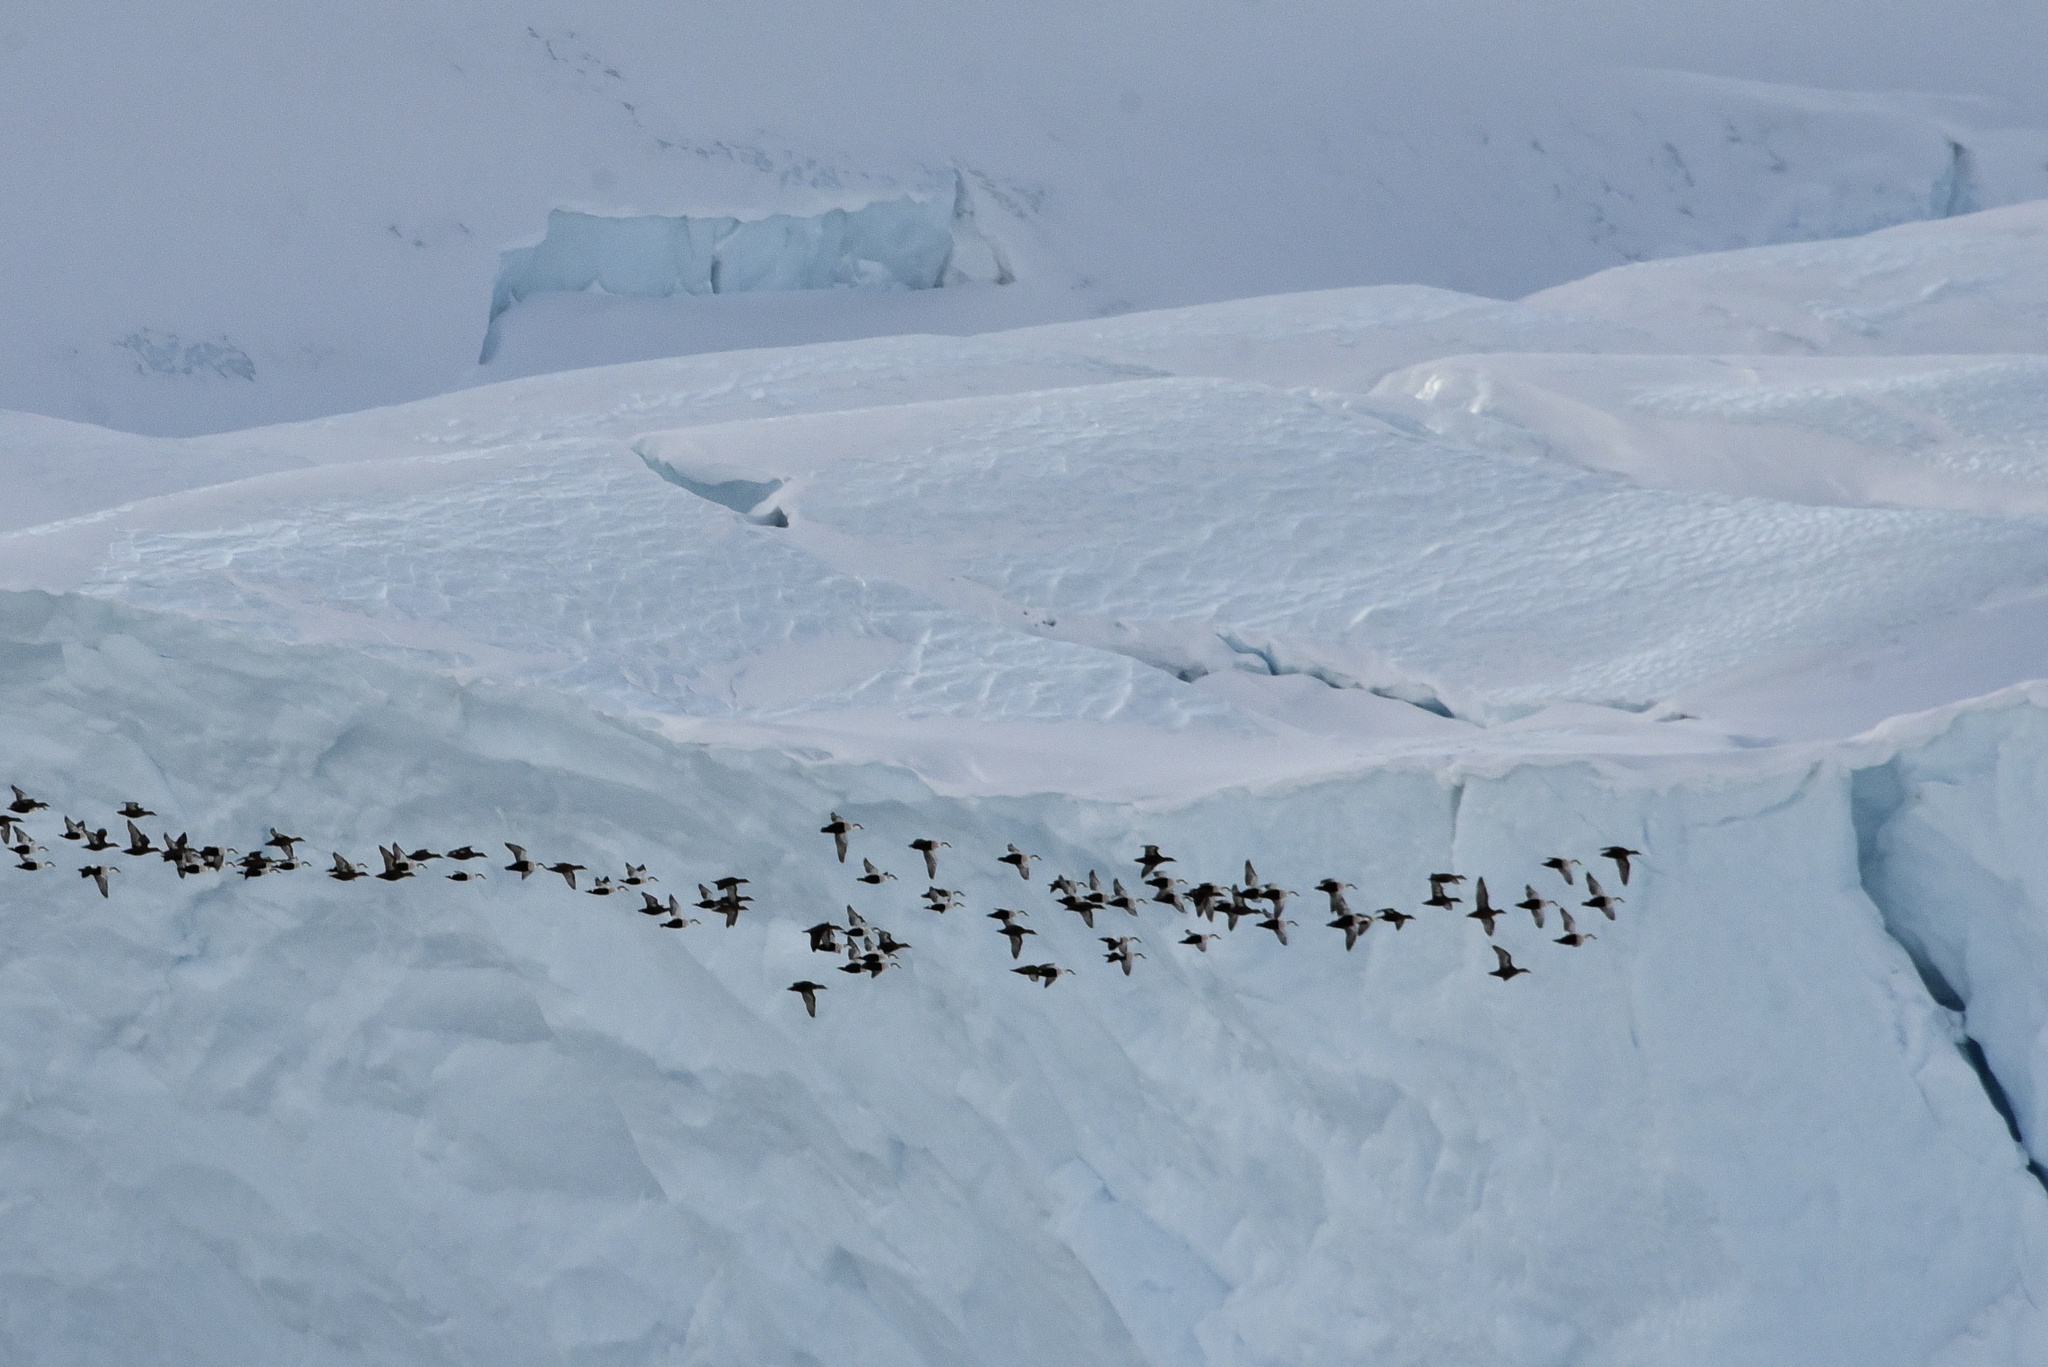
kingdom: Animalia
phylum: Chordata
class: Aves
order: Anseriformes
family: Anatidae
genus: Somateria
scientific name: Somateria mollissima
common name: Common eider
